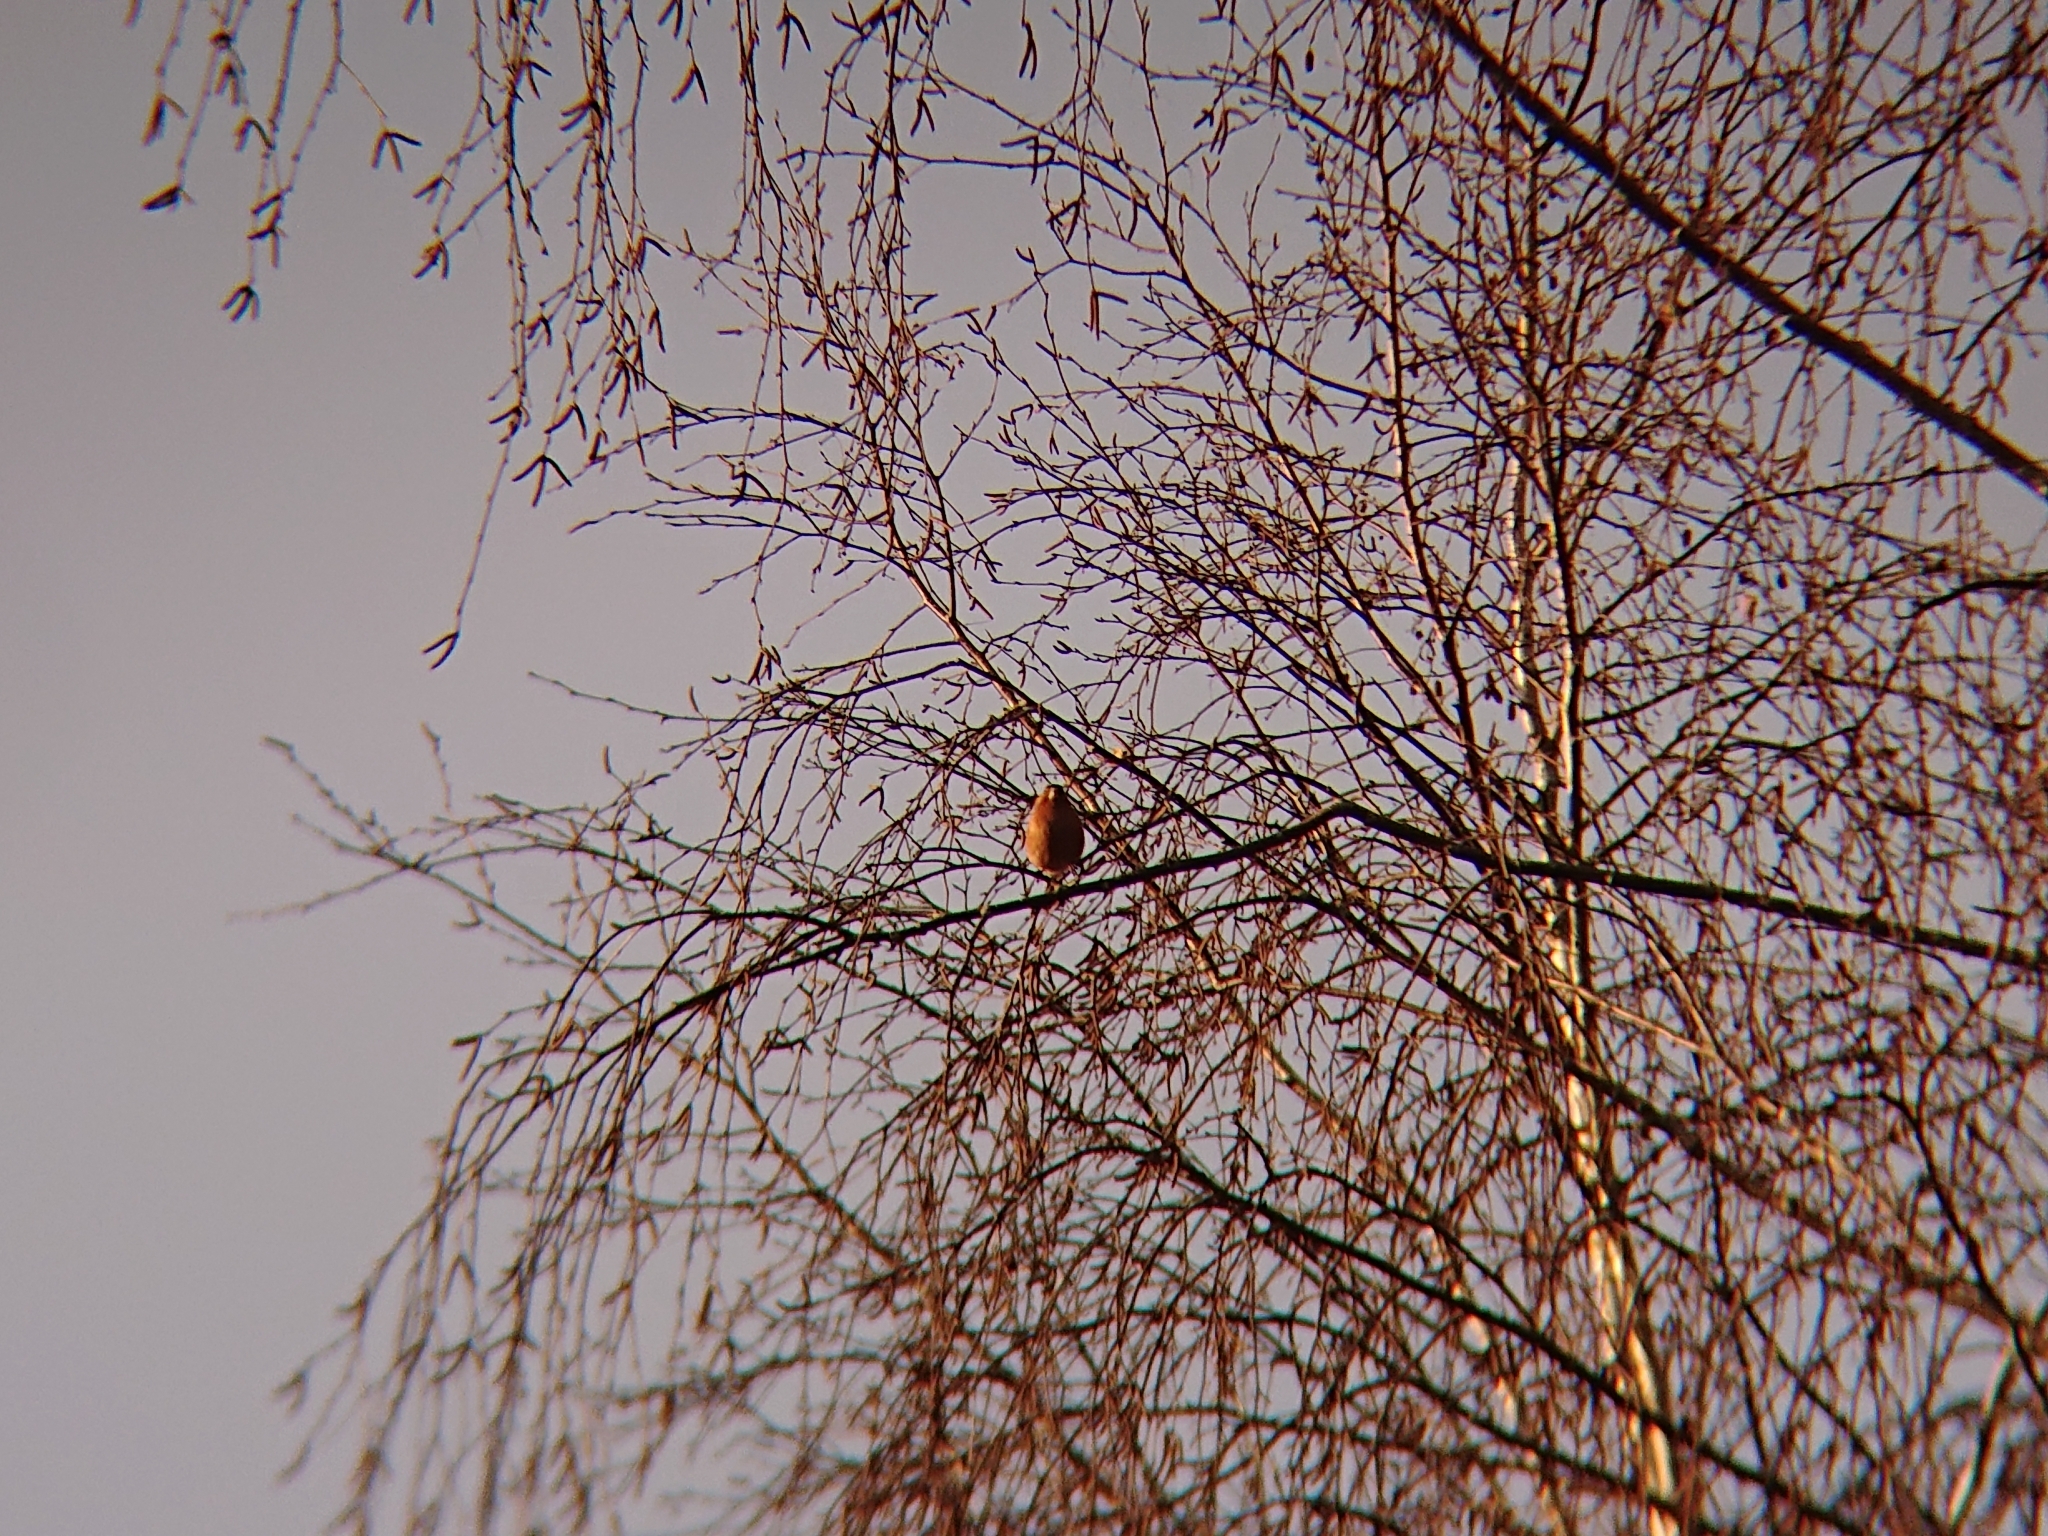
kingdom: Animalia
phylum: Chordata
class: Aves
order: Passeriformes
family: Fringillidae
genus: Fringilla
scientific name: Fringilla coelebs
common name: Common chaffinch
